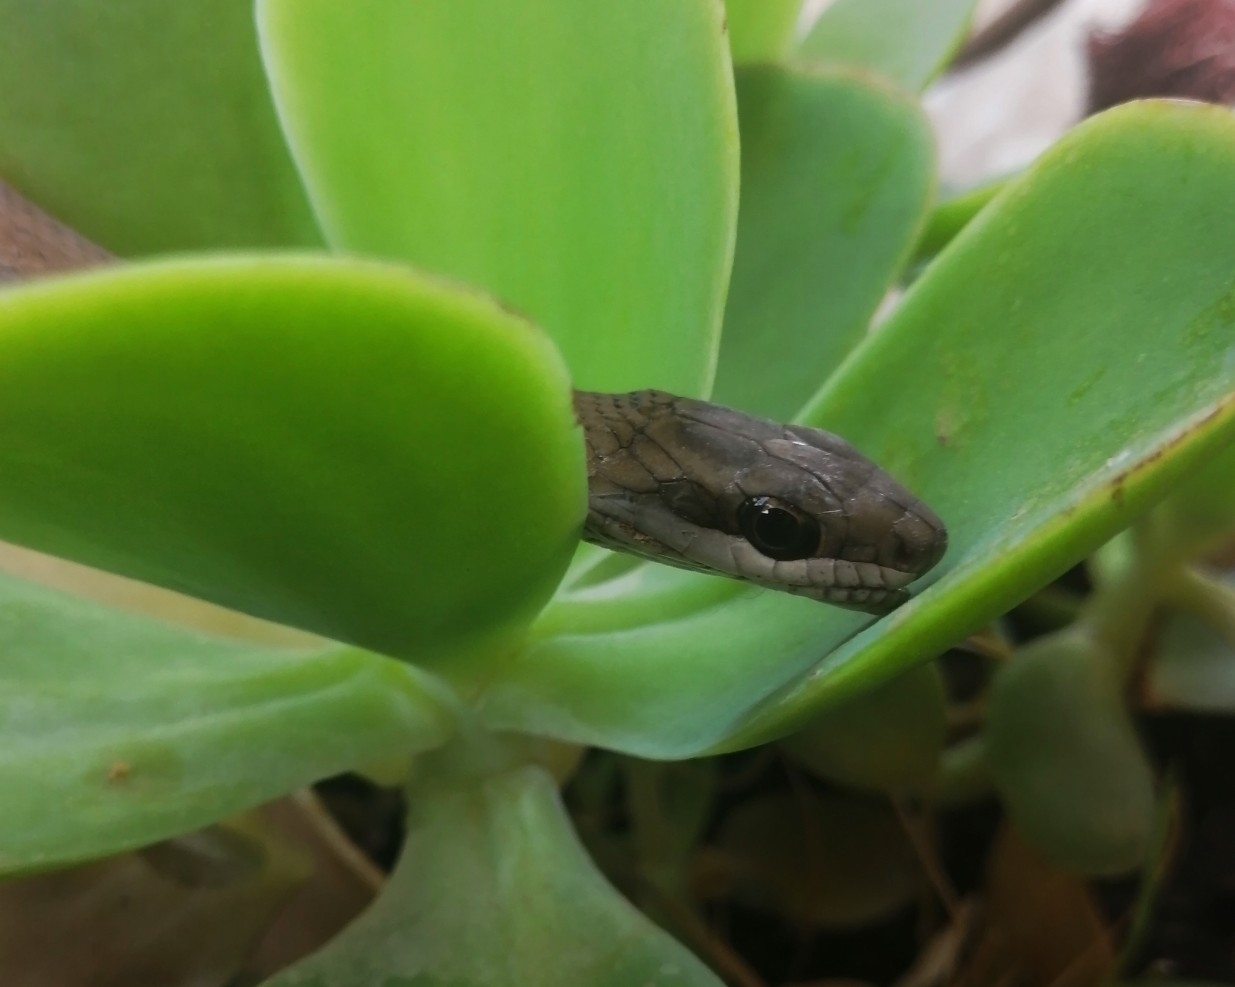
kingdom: Animalia
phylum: Chordata
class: Squamata
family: Colubridae
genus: Mastigodryas
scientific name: Mastigodryas melanolomus
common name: Salmon-bellied racer
